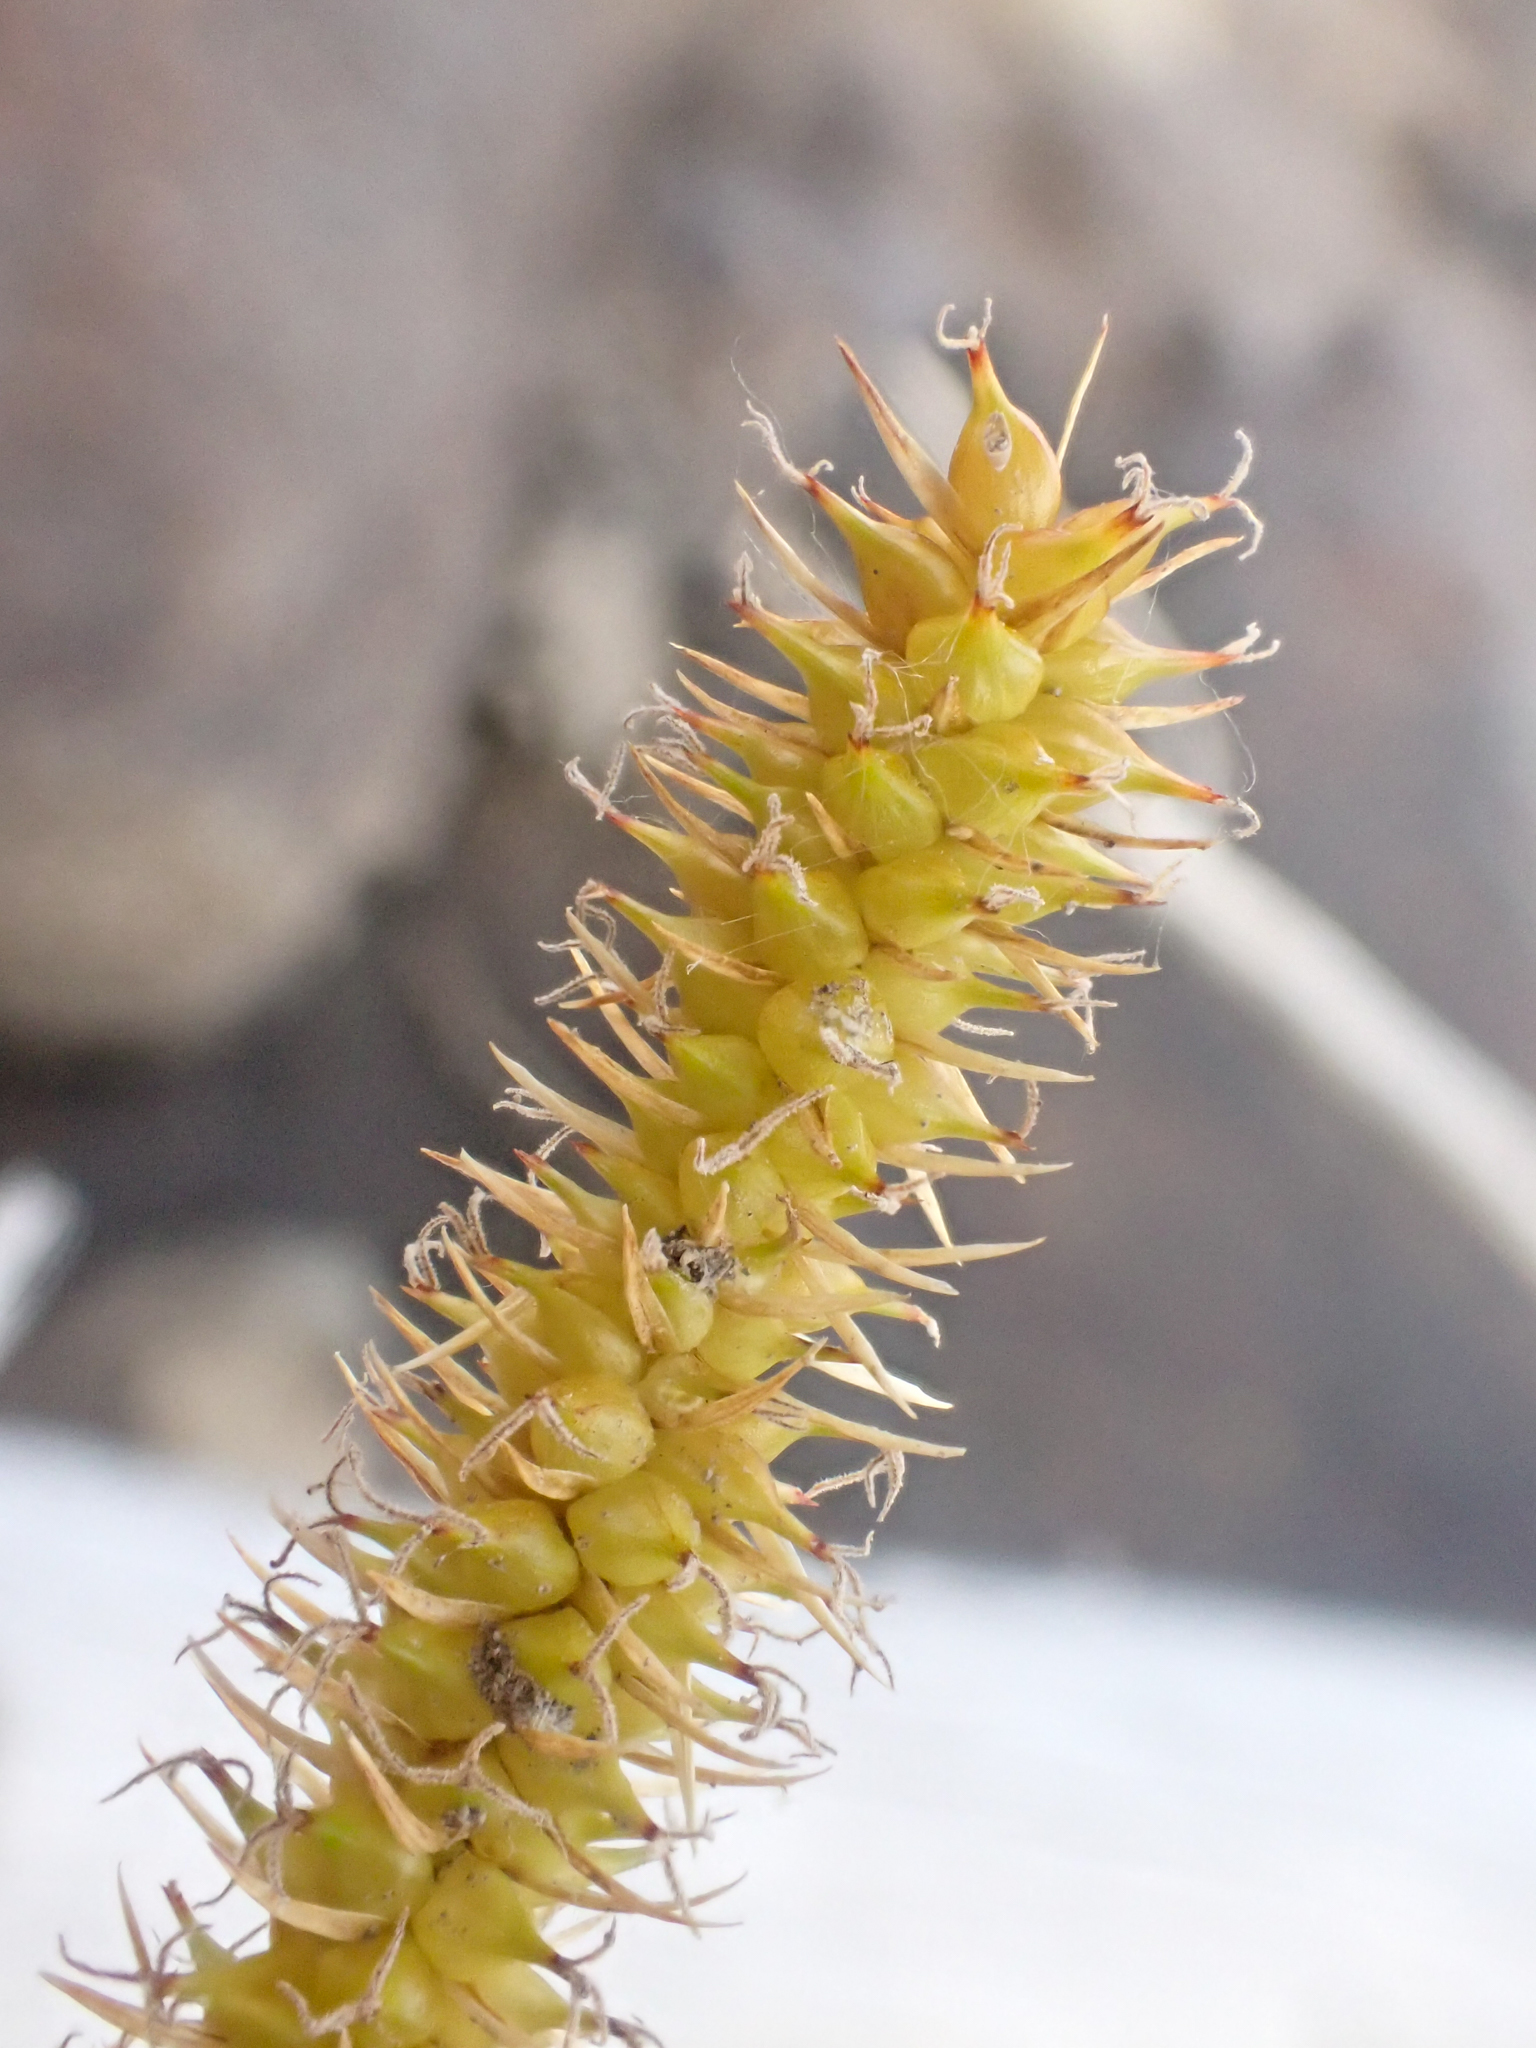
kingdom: Plantae
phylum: Tracheophyta
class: Liliopsida
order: Poales
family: Cyperaceae
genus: Carex
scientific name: Carex utriculata
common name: Beaked sedge
